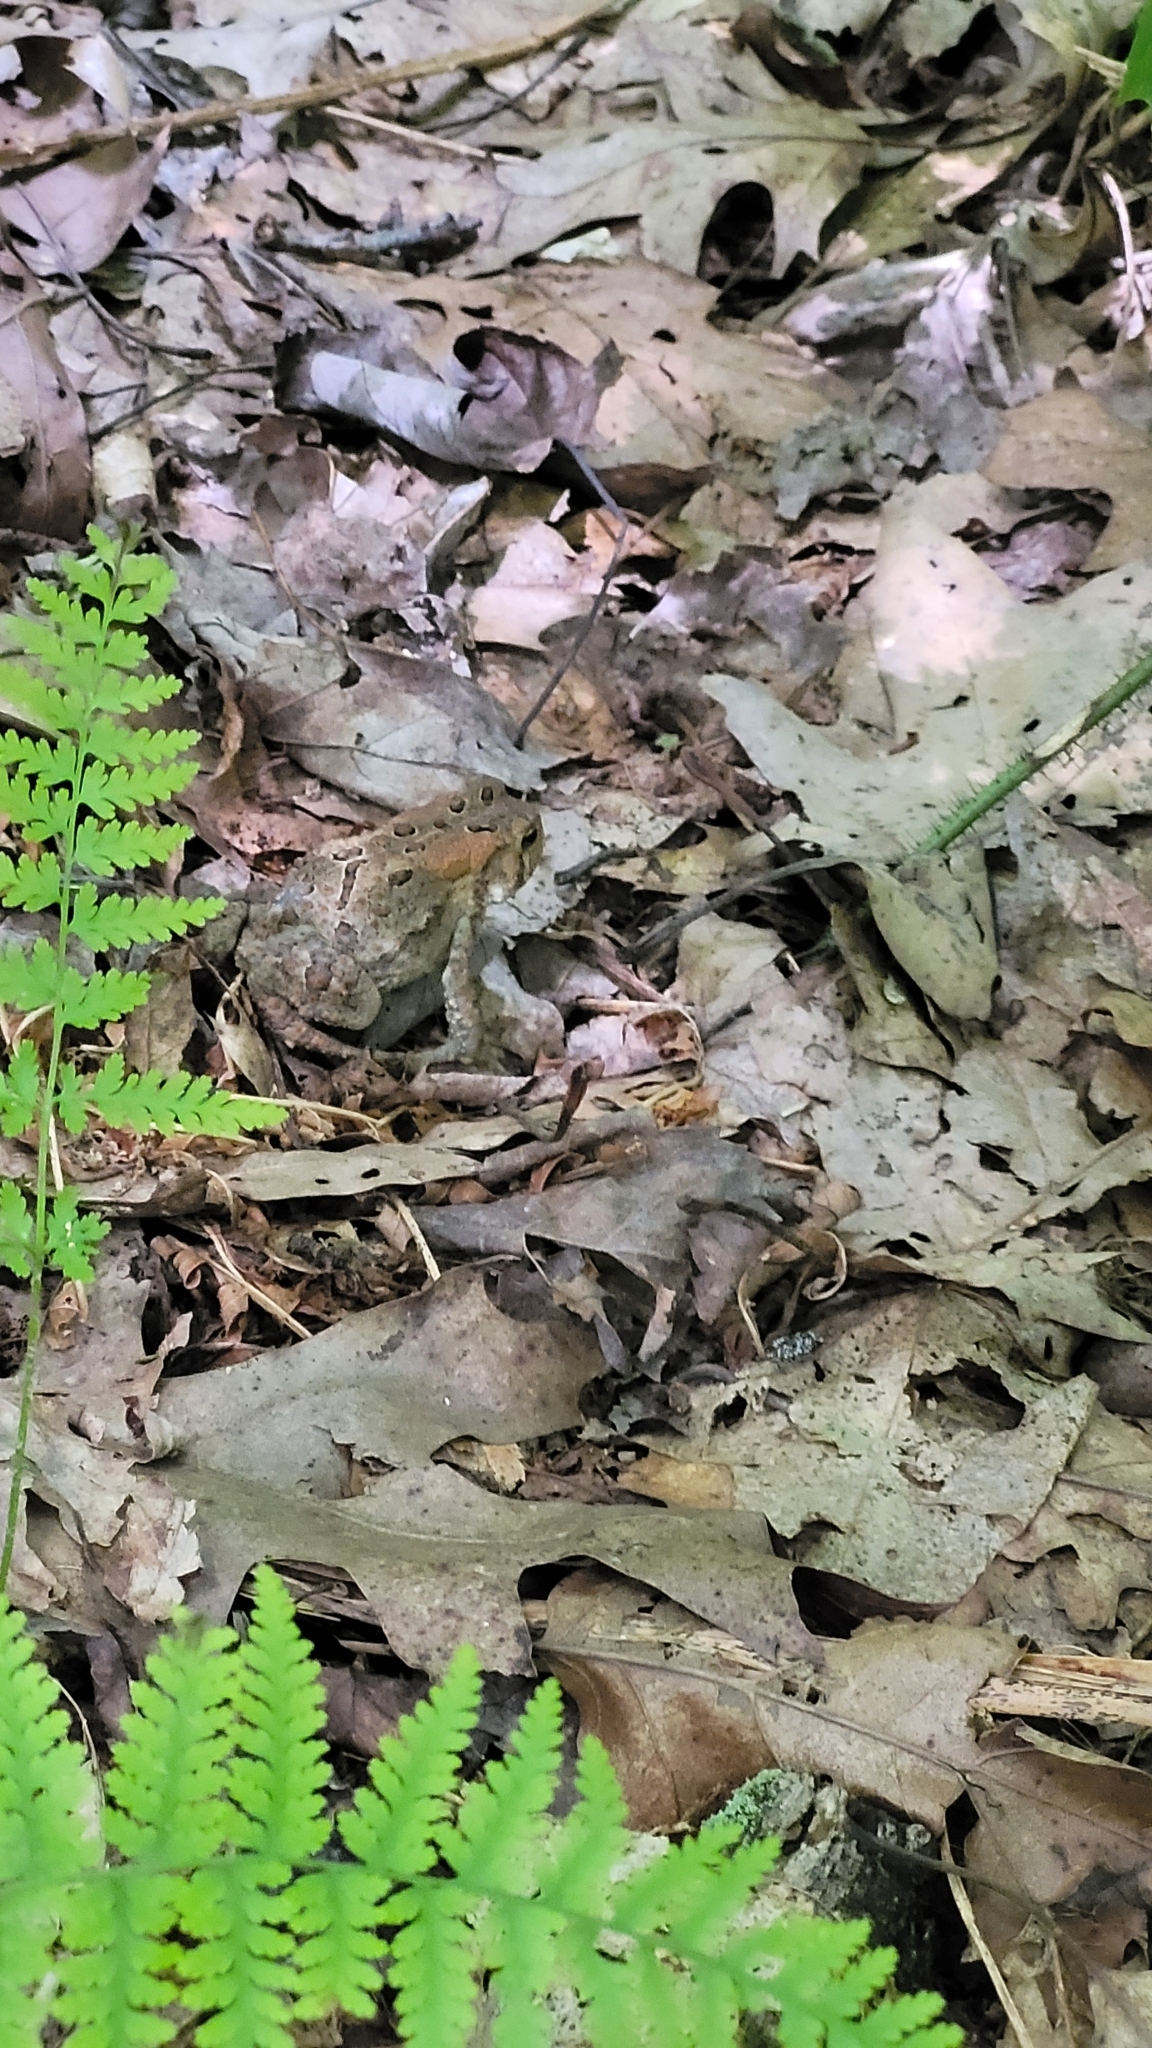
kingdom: Animalia
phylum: Chordata
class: Amphibia
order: Anura
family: Bufonidae
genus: Anaxyrus
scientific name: Anaxyrus americanus
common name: American toad
